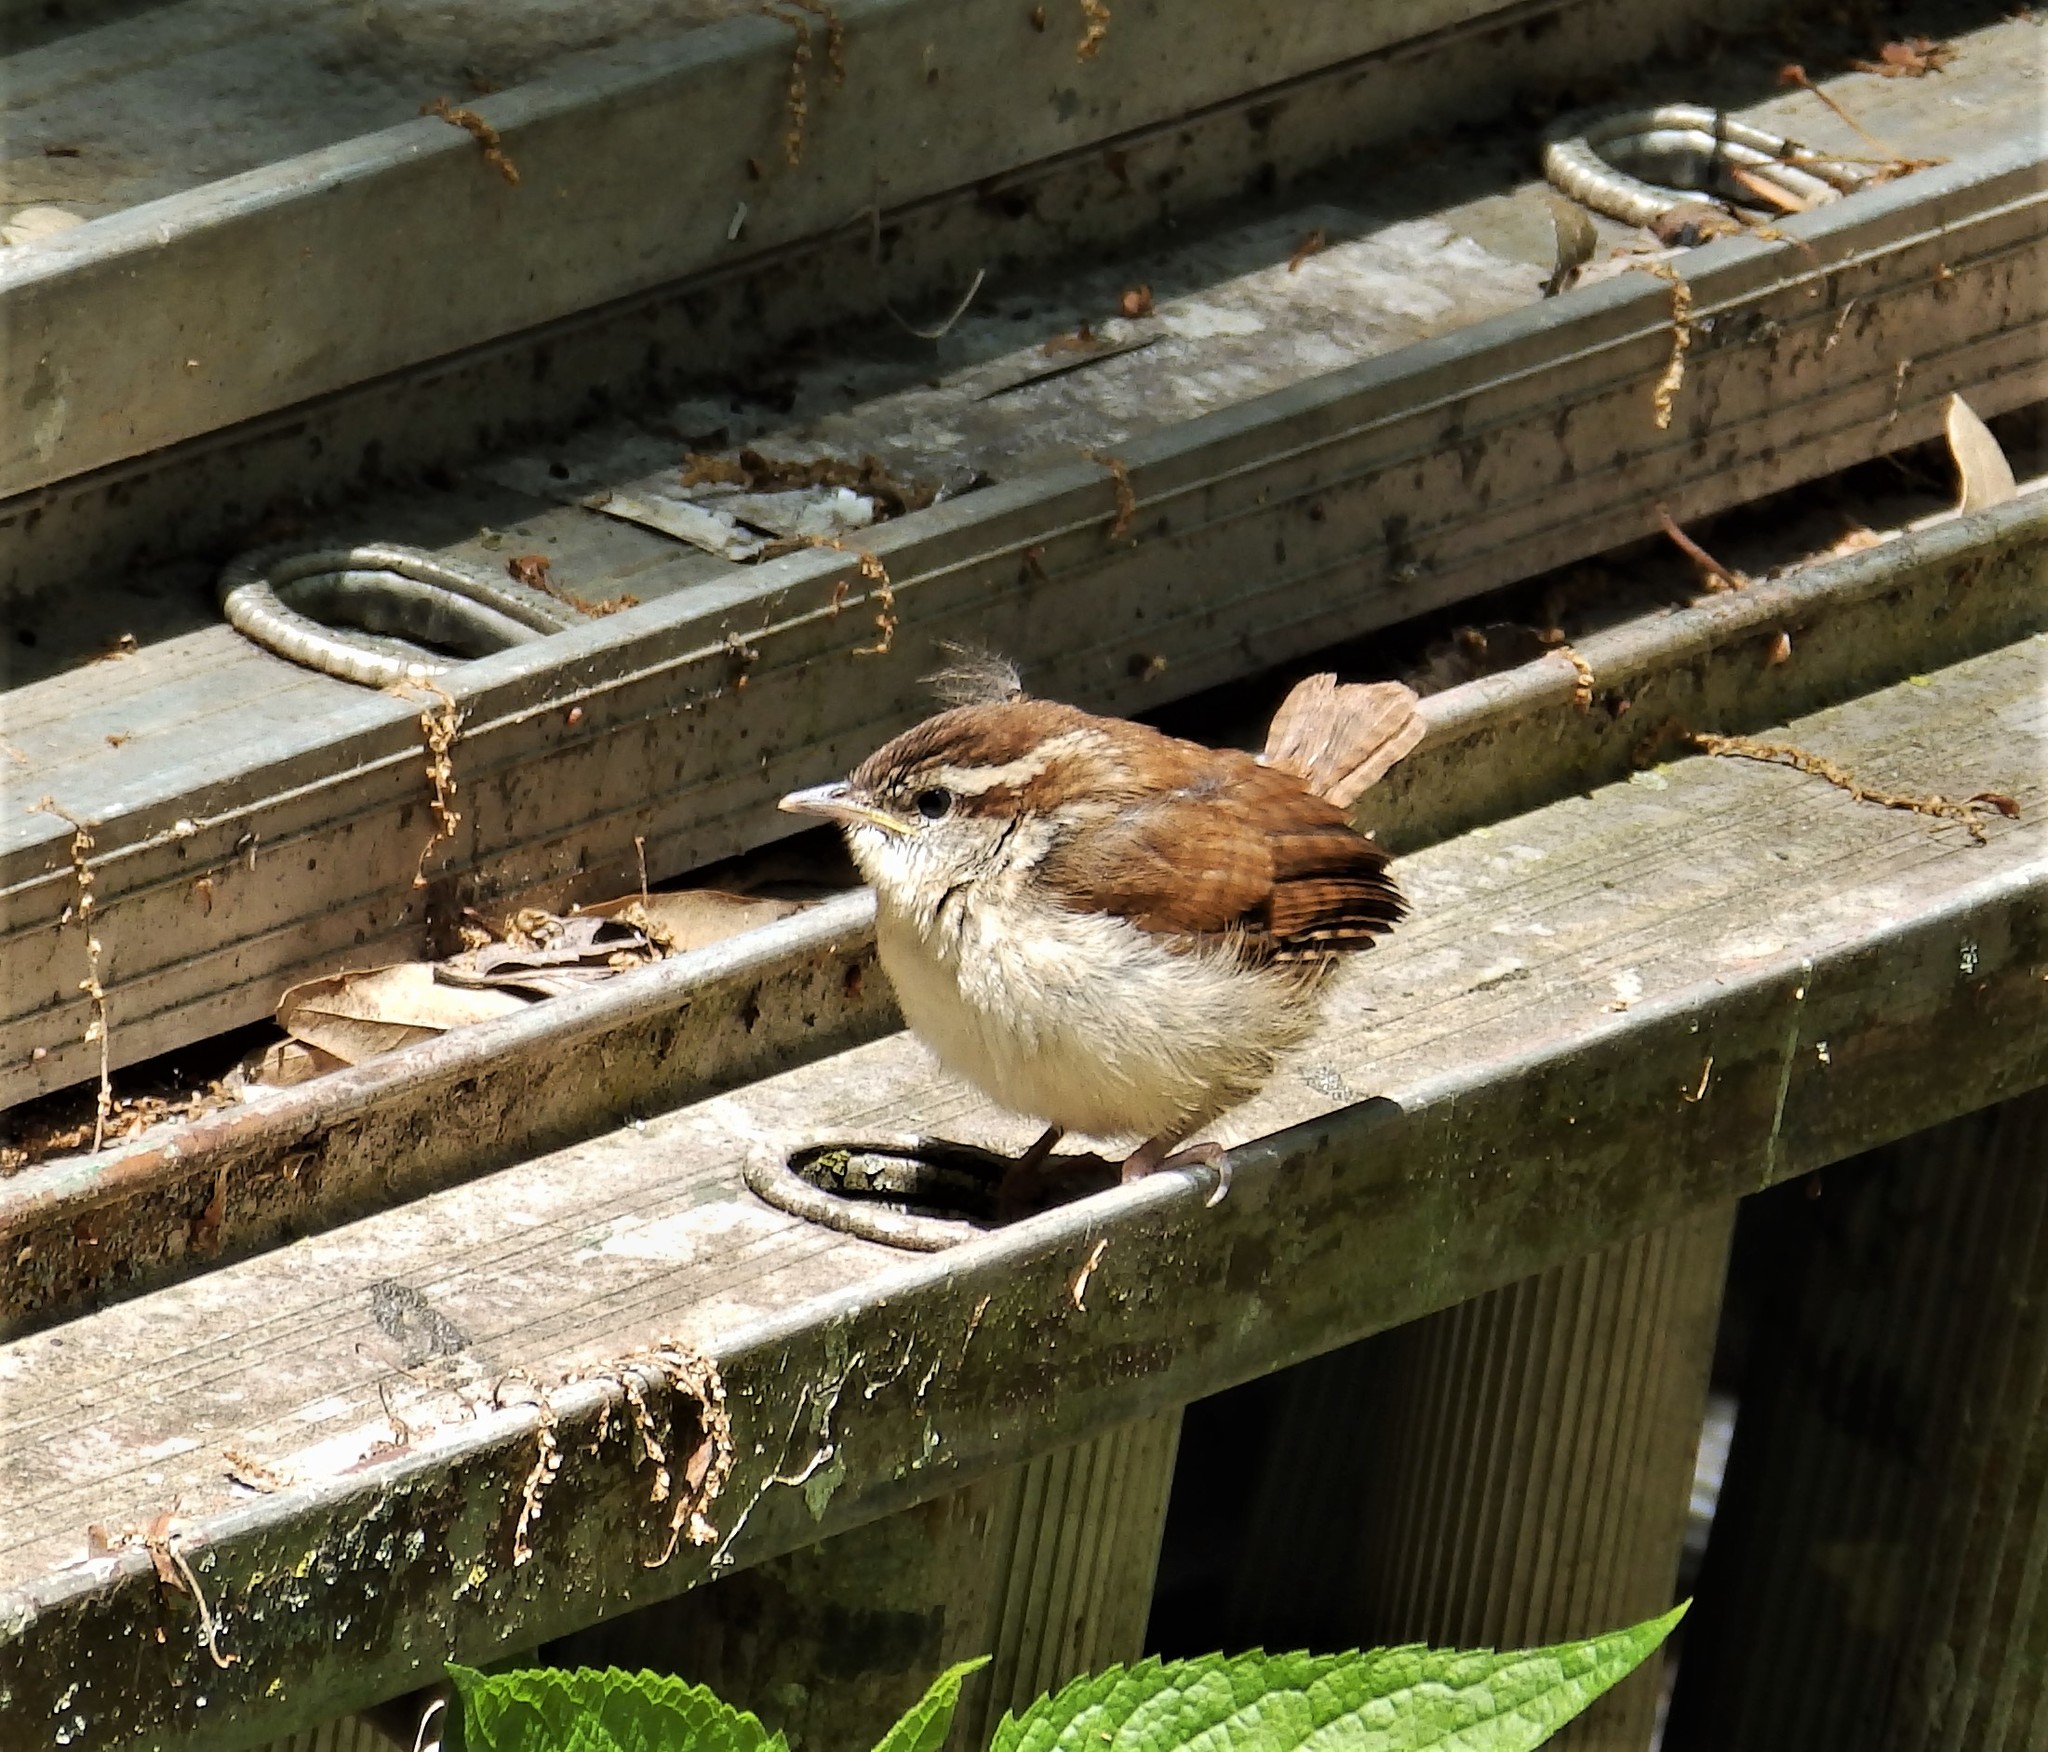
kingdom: Animalia
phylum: Chordata
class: Aves
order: Passeriformes
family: Troglodytidae
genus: Thryothorus
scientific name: Thryothorus ludovicianus
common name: Carolina wren
